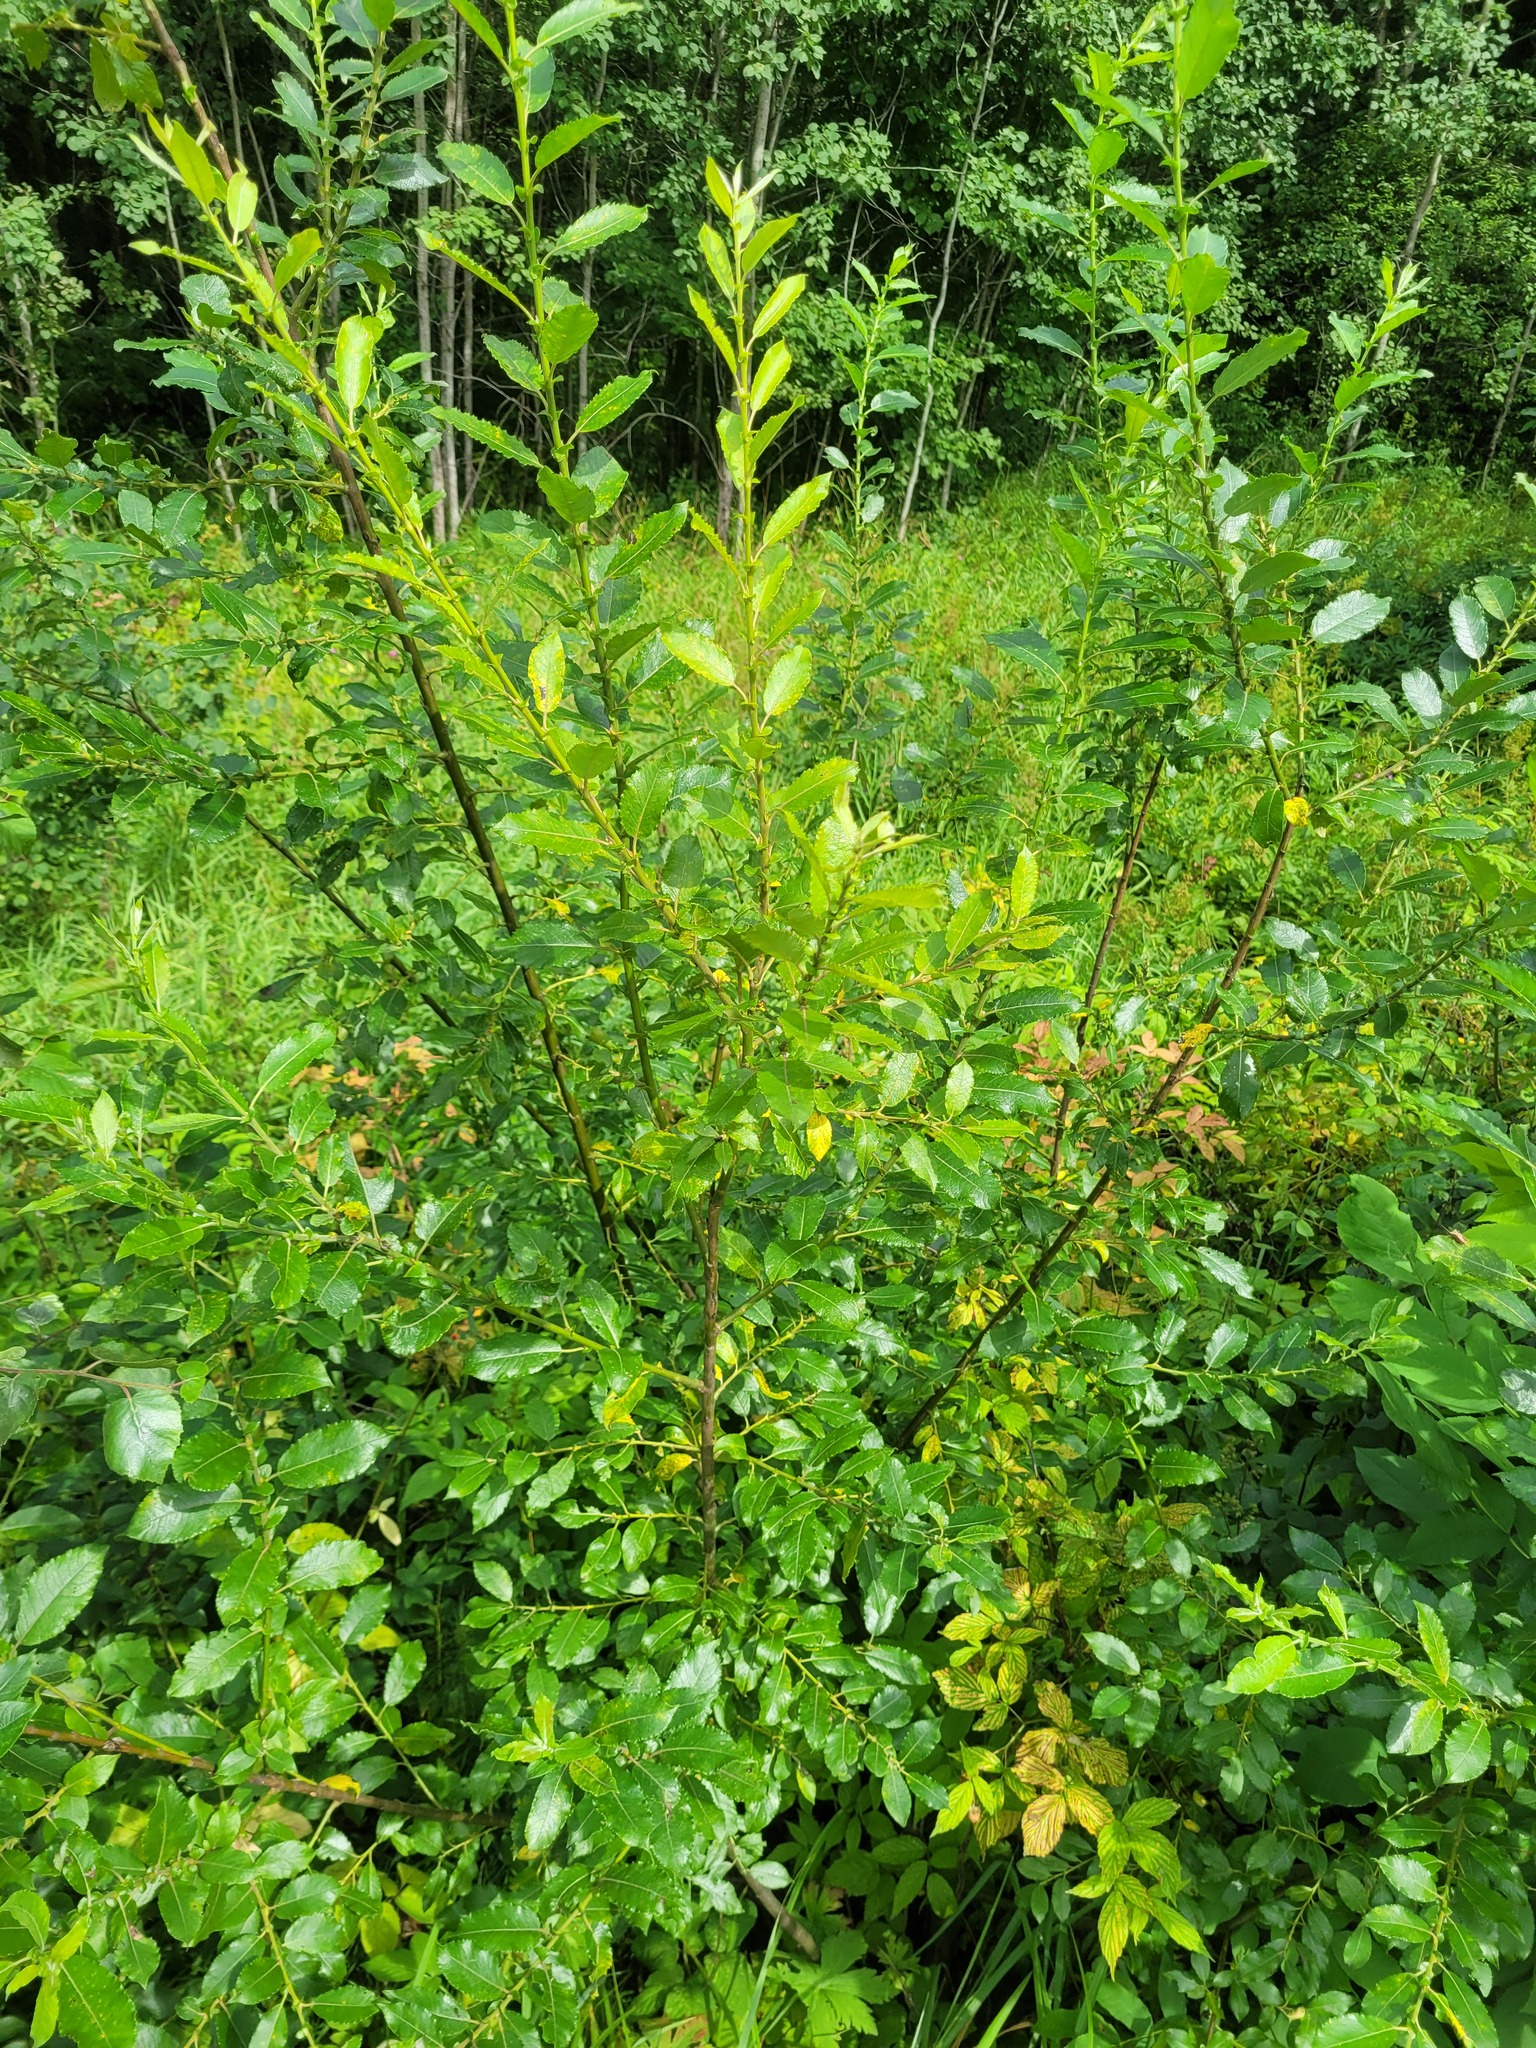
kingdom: Plantae
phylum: Tracheophyta
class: Magnoliopsida
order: Malpighiales
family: Salicaceae
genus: Salix
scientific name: Salix myrsinifolia
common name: Dark-leaved willow
